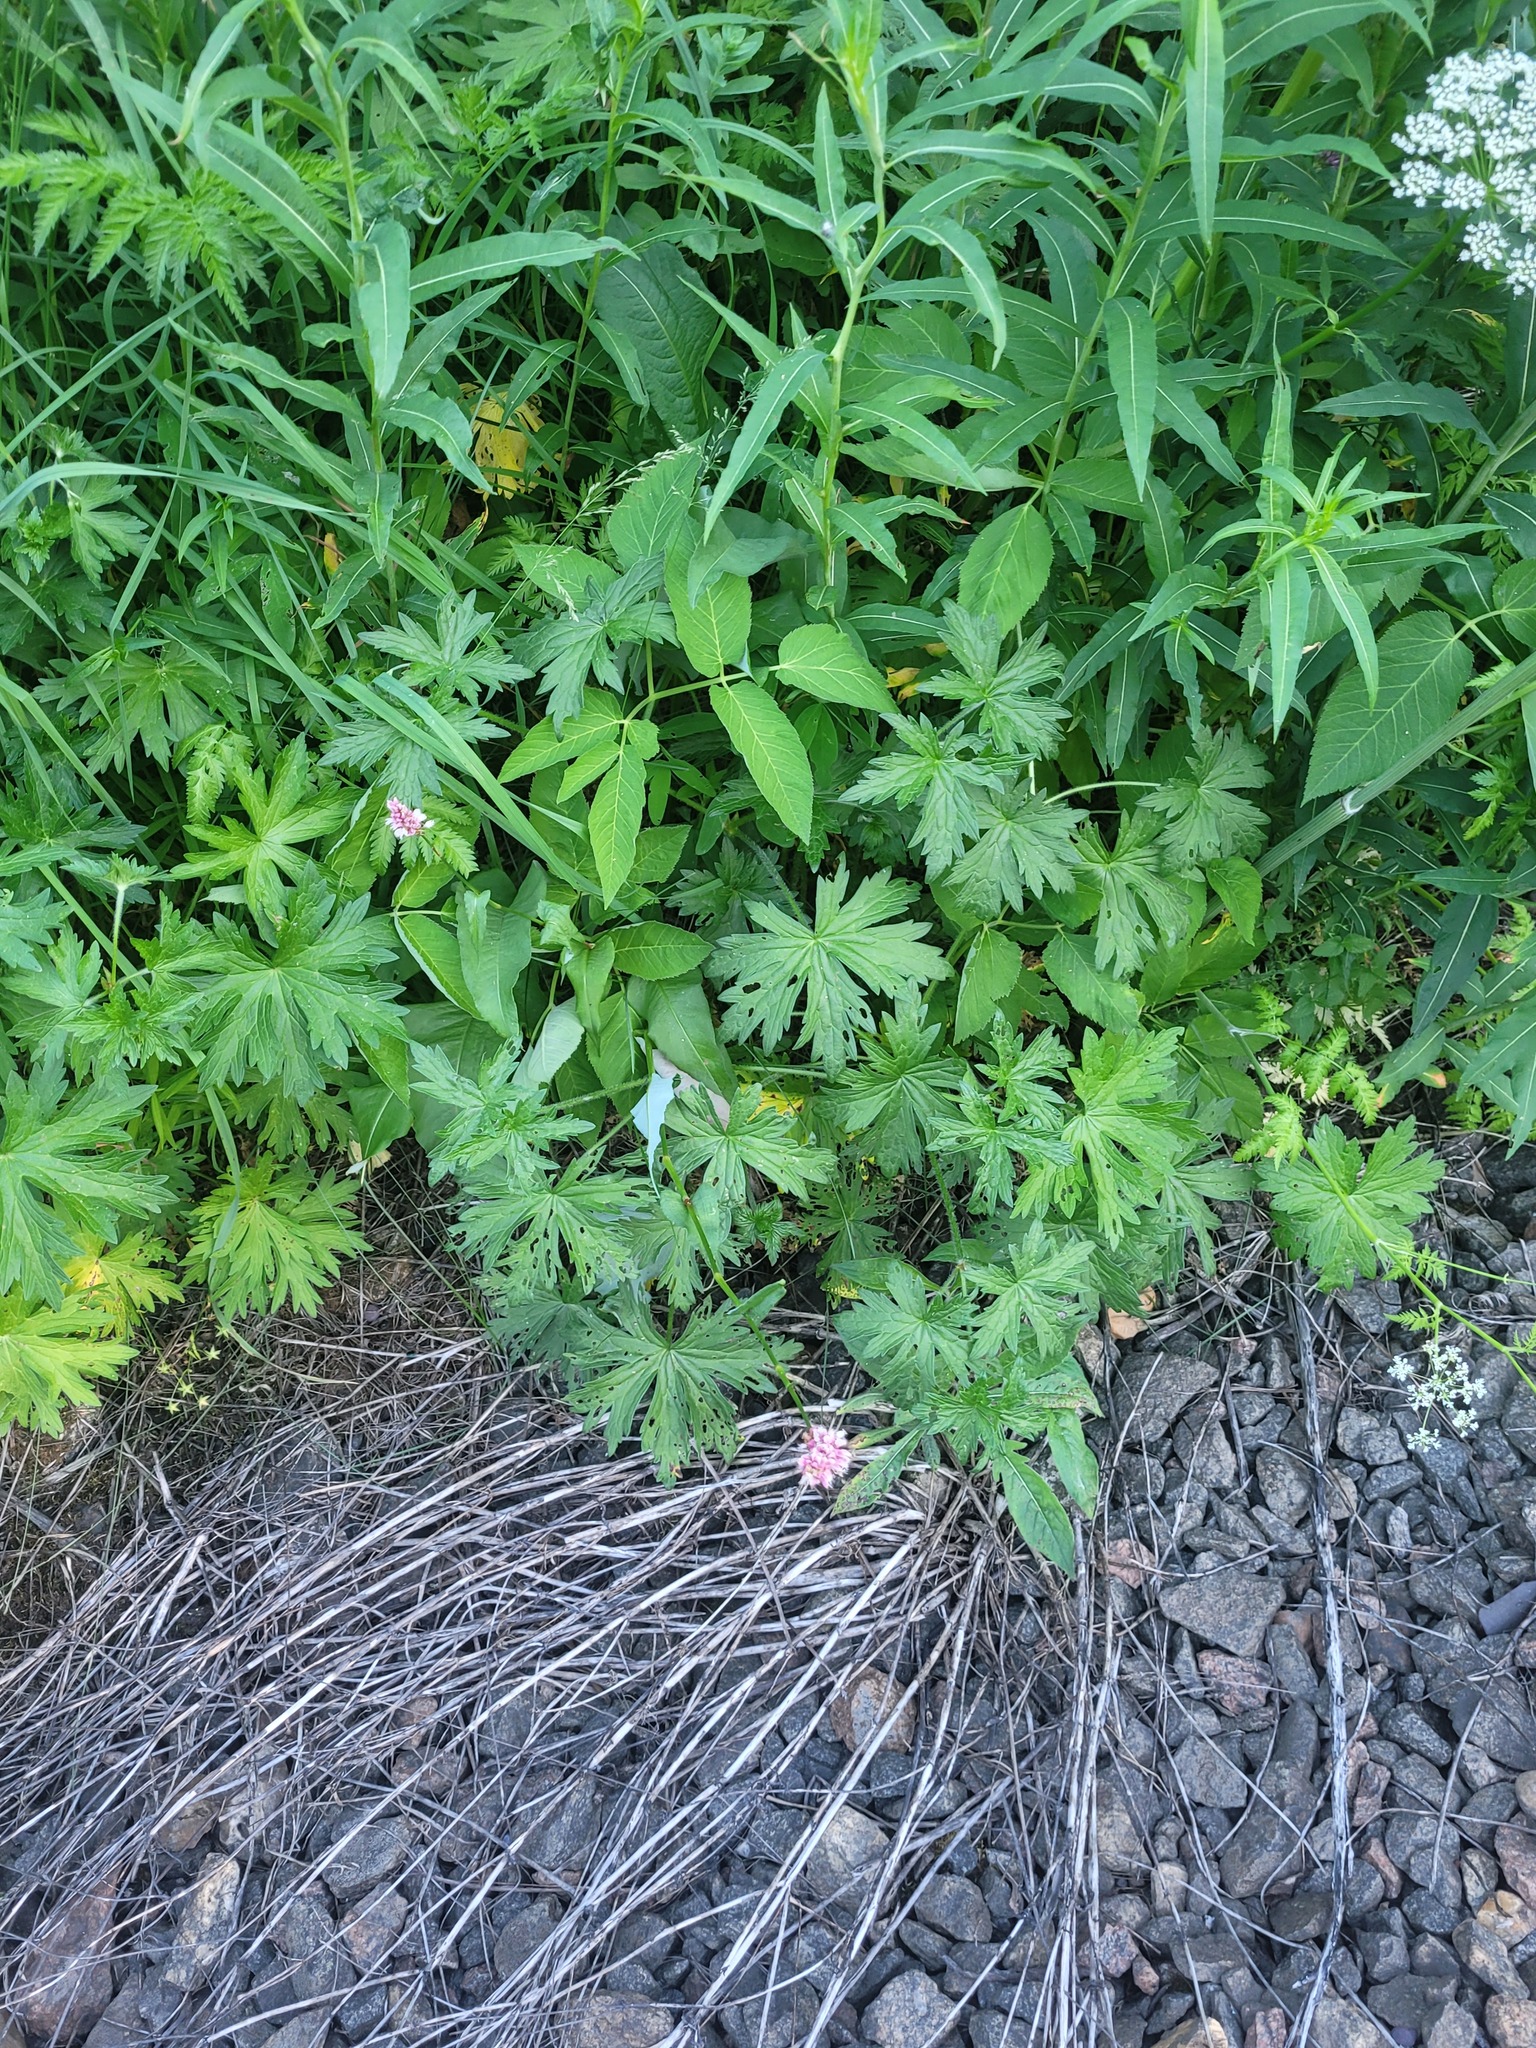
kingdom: Plantae
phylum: Tracheophyta
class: Magnoliopsida
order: Caryophyllales
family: Polygonaceae
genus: Bistorta
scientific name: Bistorta officinalis
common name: Common bistort
